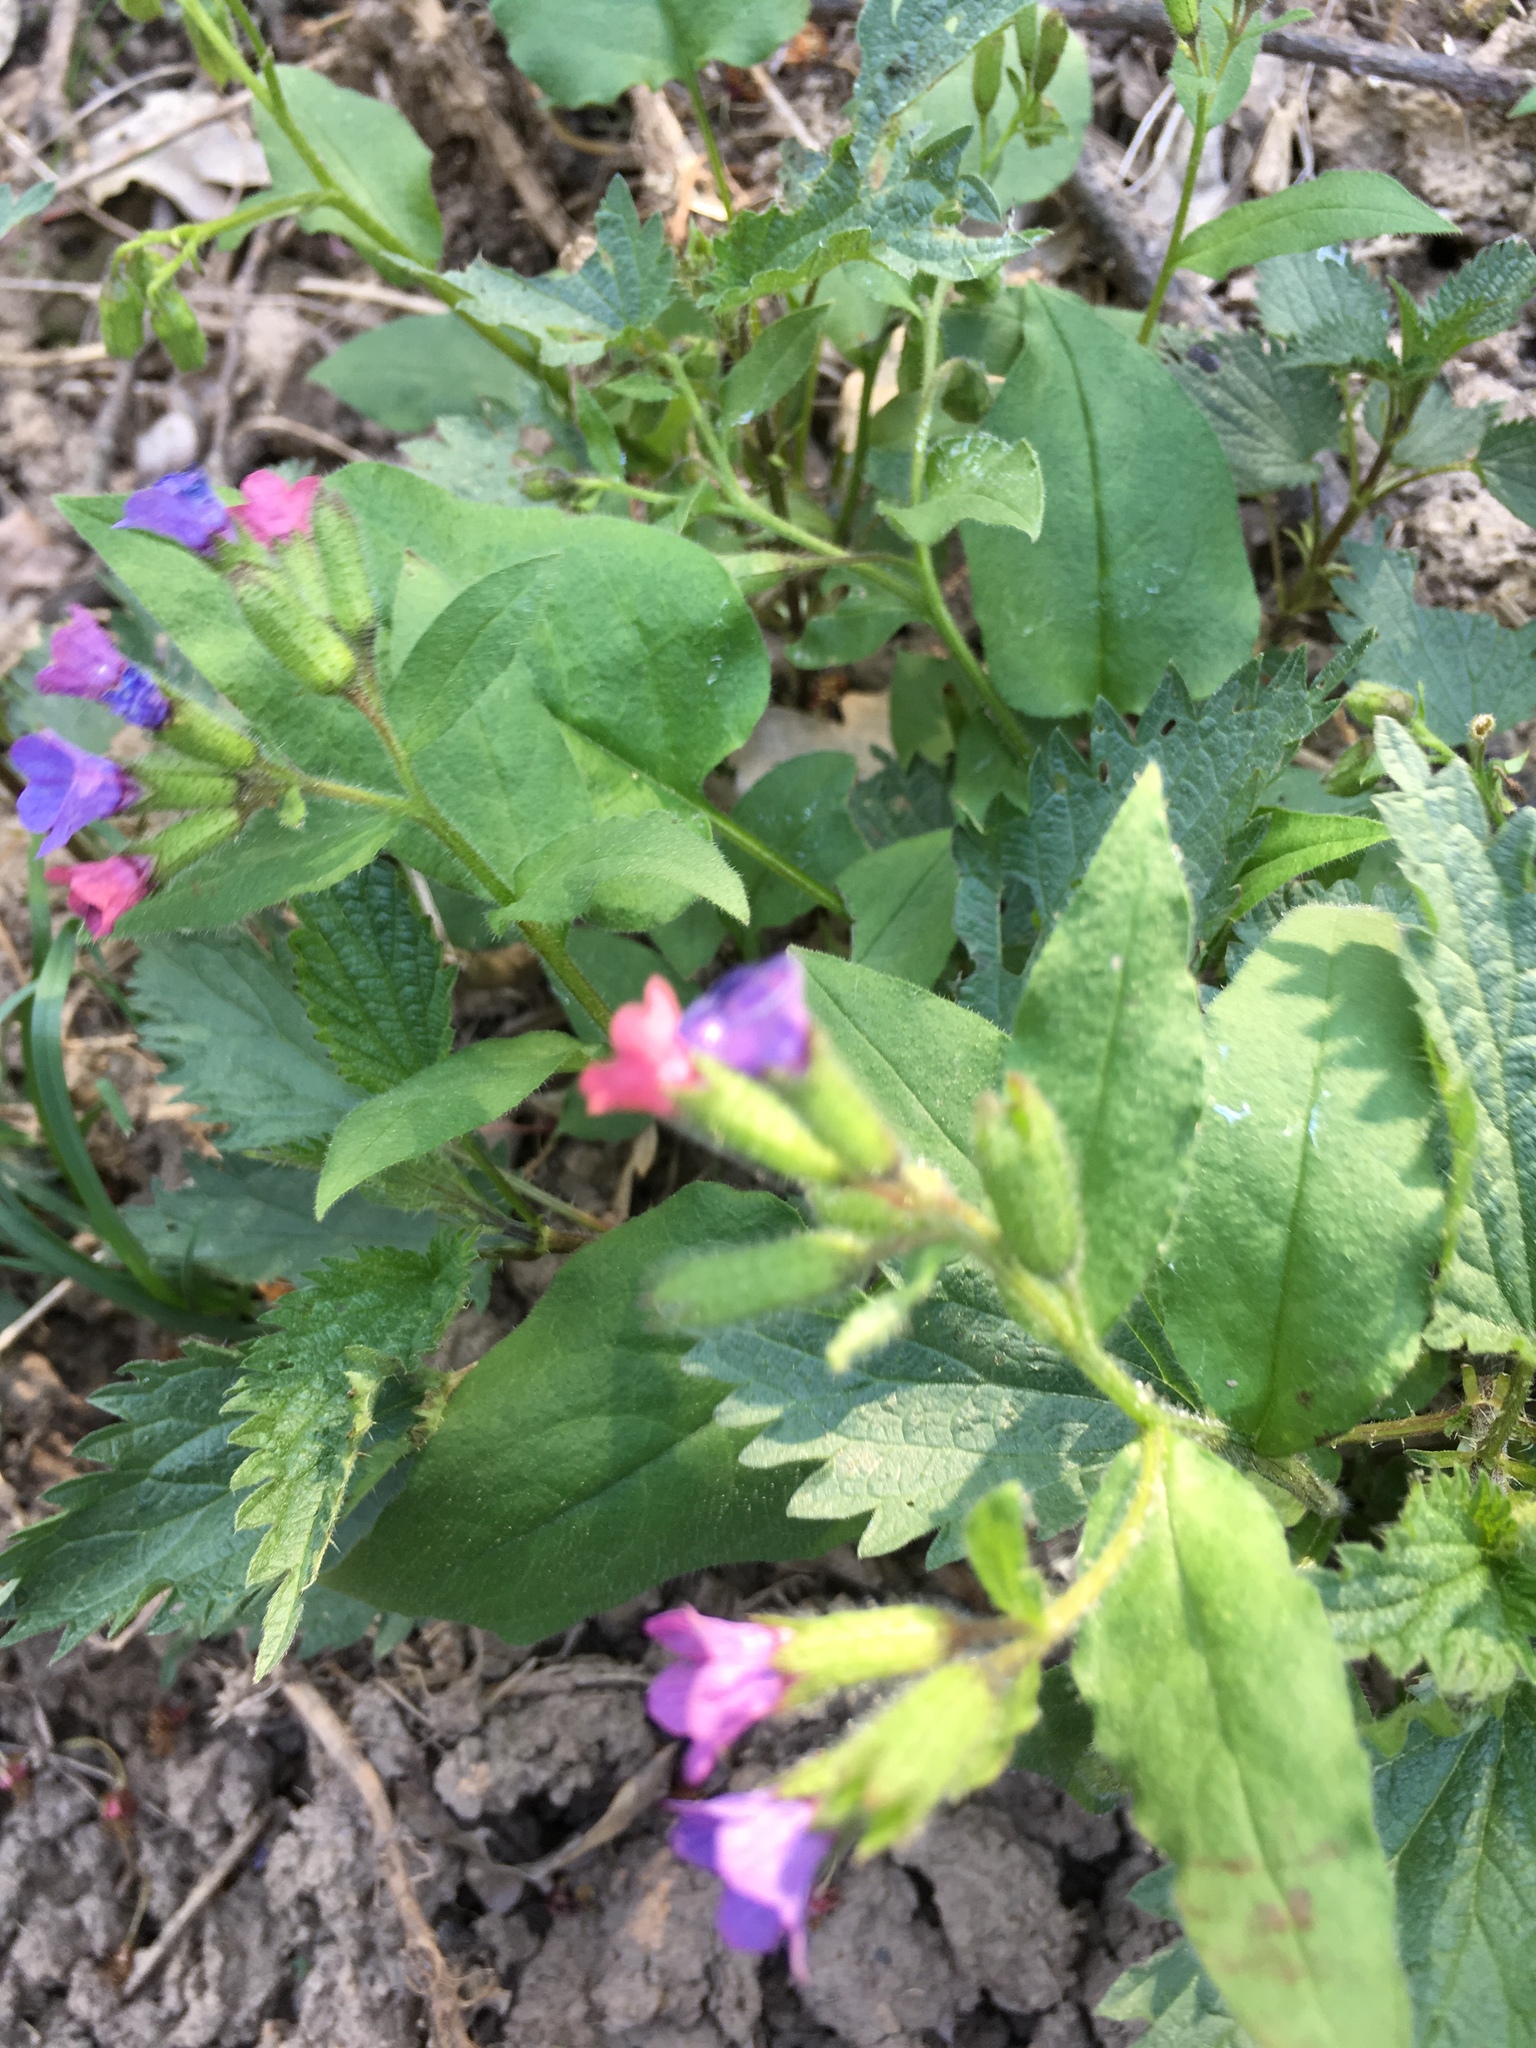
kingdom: Plantae
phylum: Tracheophyta
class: Magnoliopsida
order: Boraginales
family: Boraginaceae
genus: Pulmonaria
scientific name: Pulmonaria obscura
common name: Suffolk lungwort
